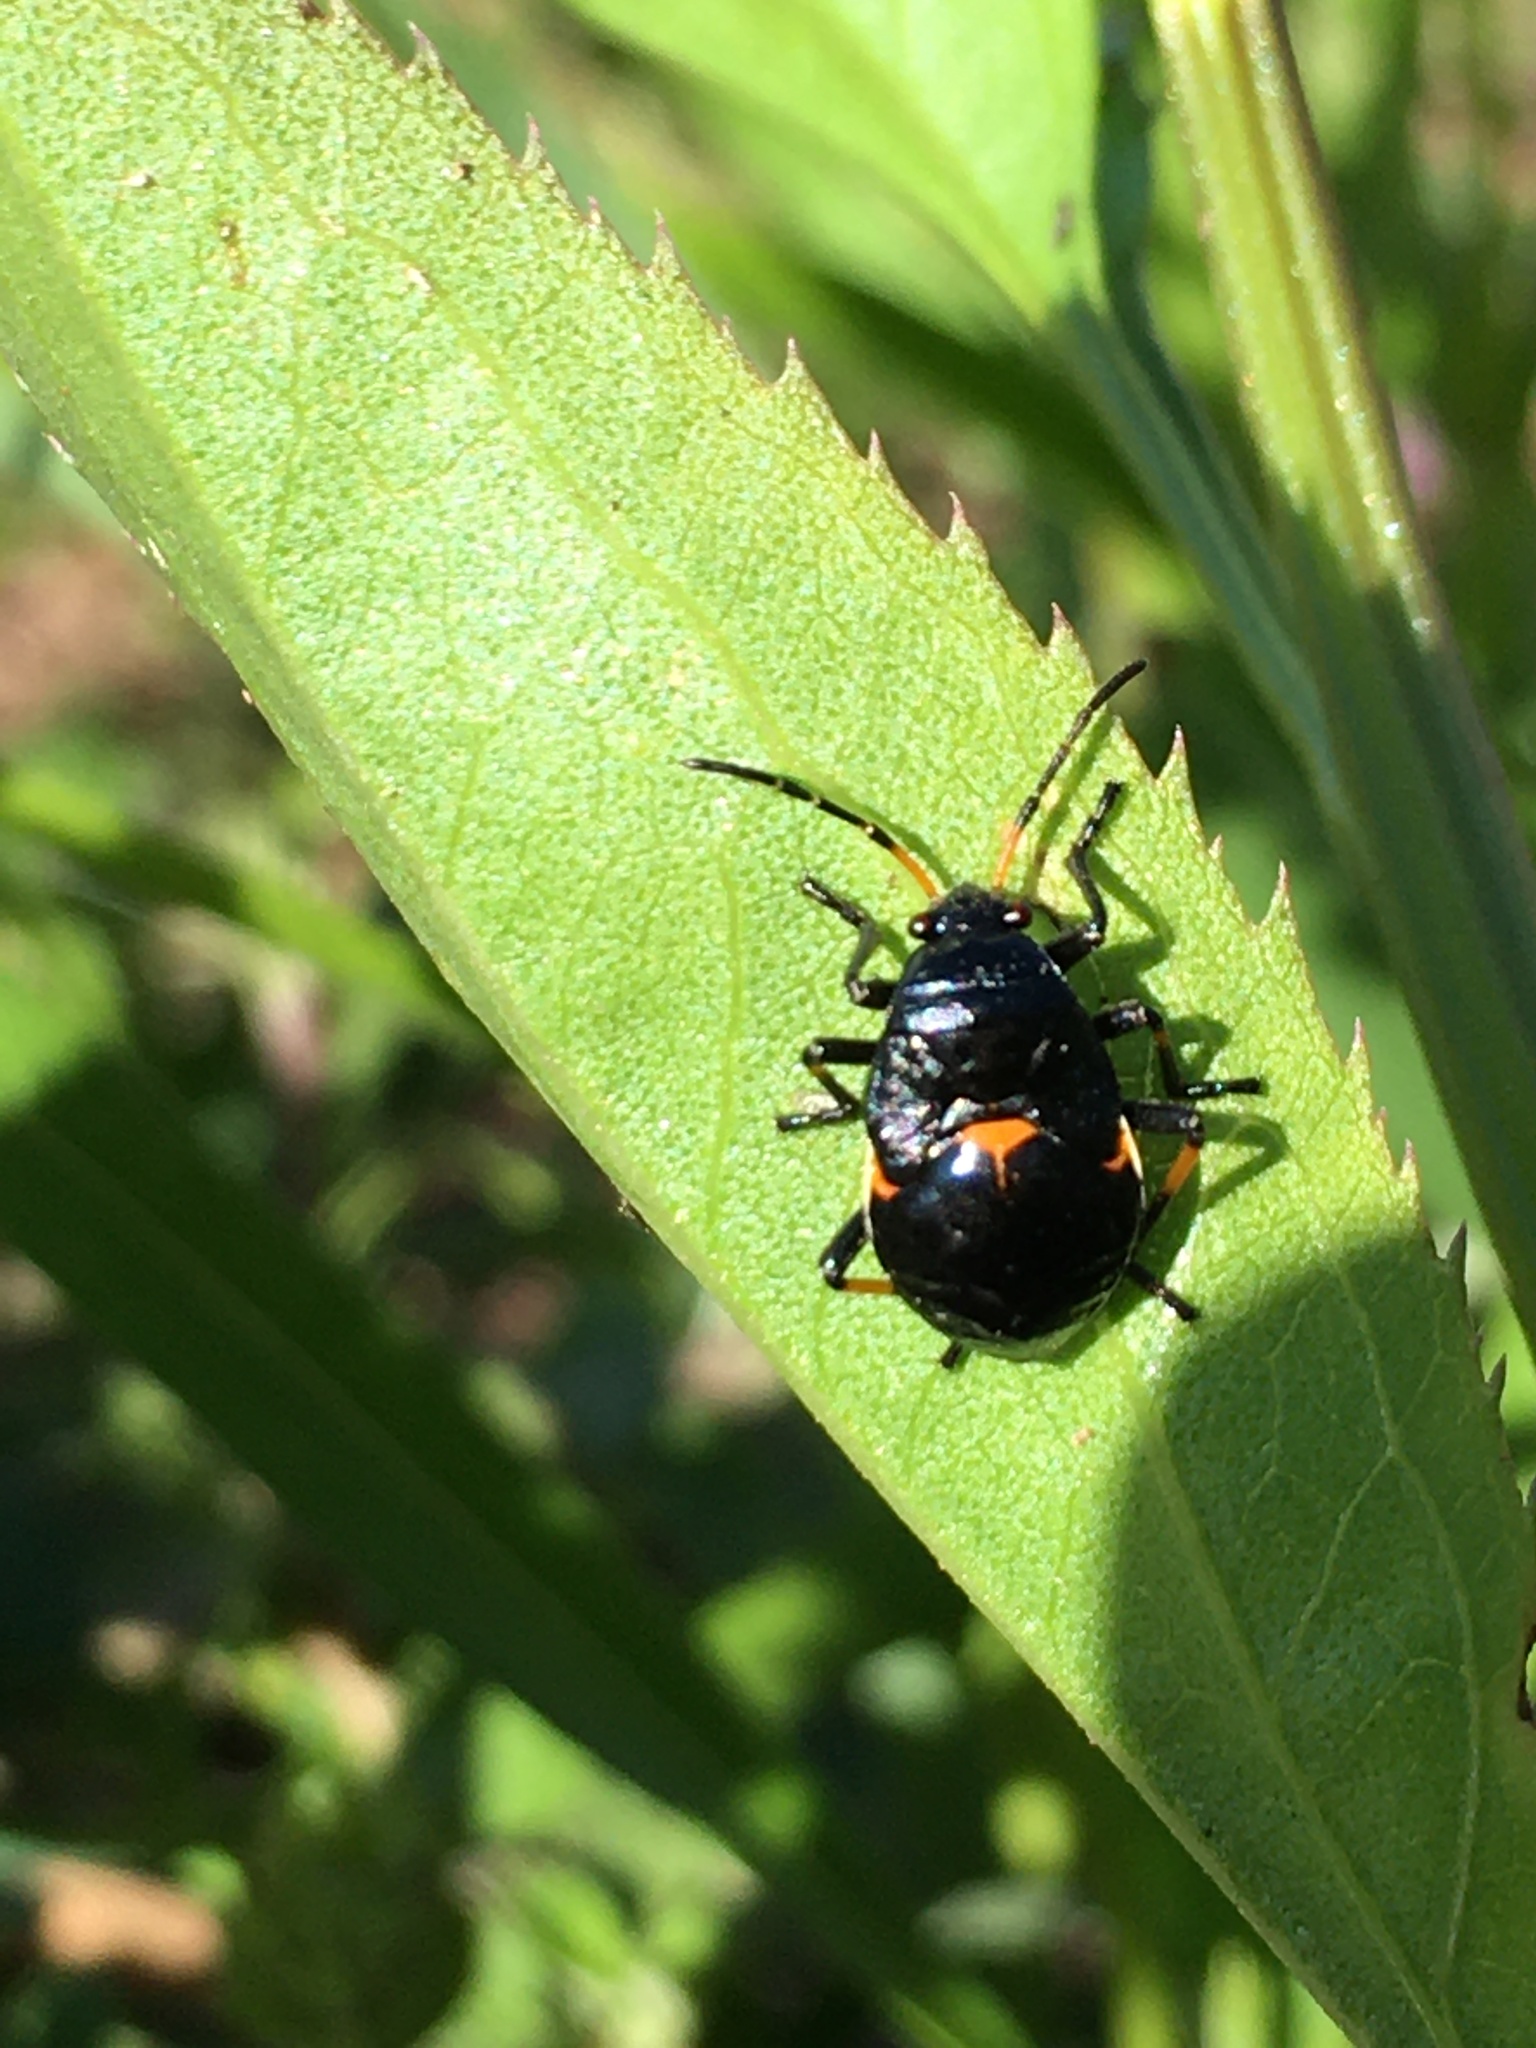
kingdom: Animalia
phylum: Arthropoda
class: Insecta
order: Hemiptera
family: Largidae
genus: Largus
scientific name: Largus fasciatus
